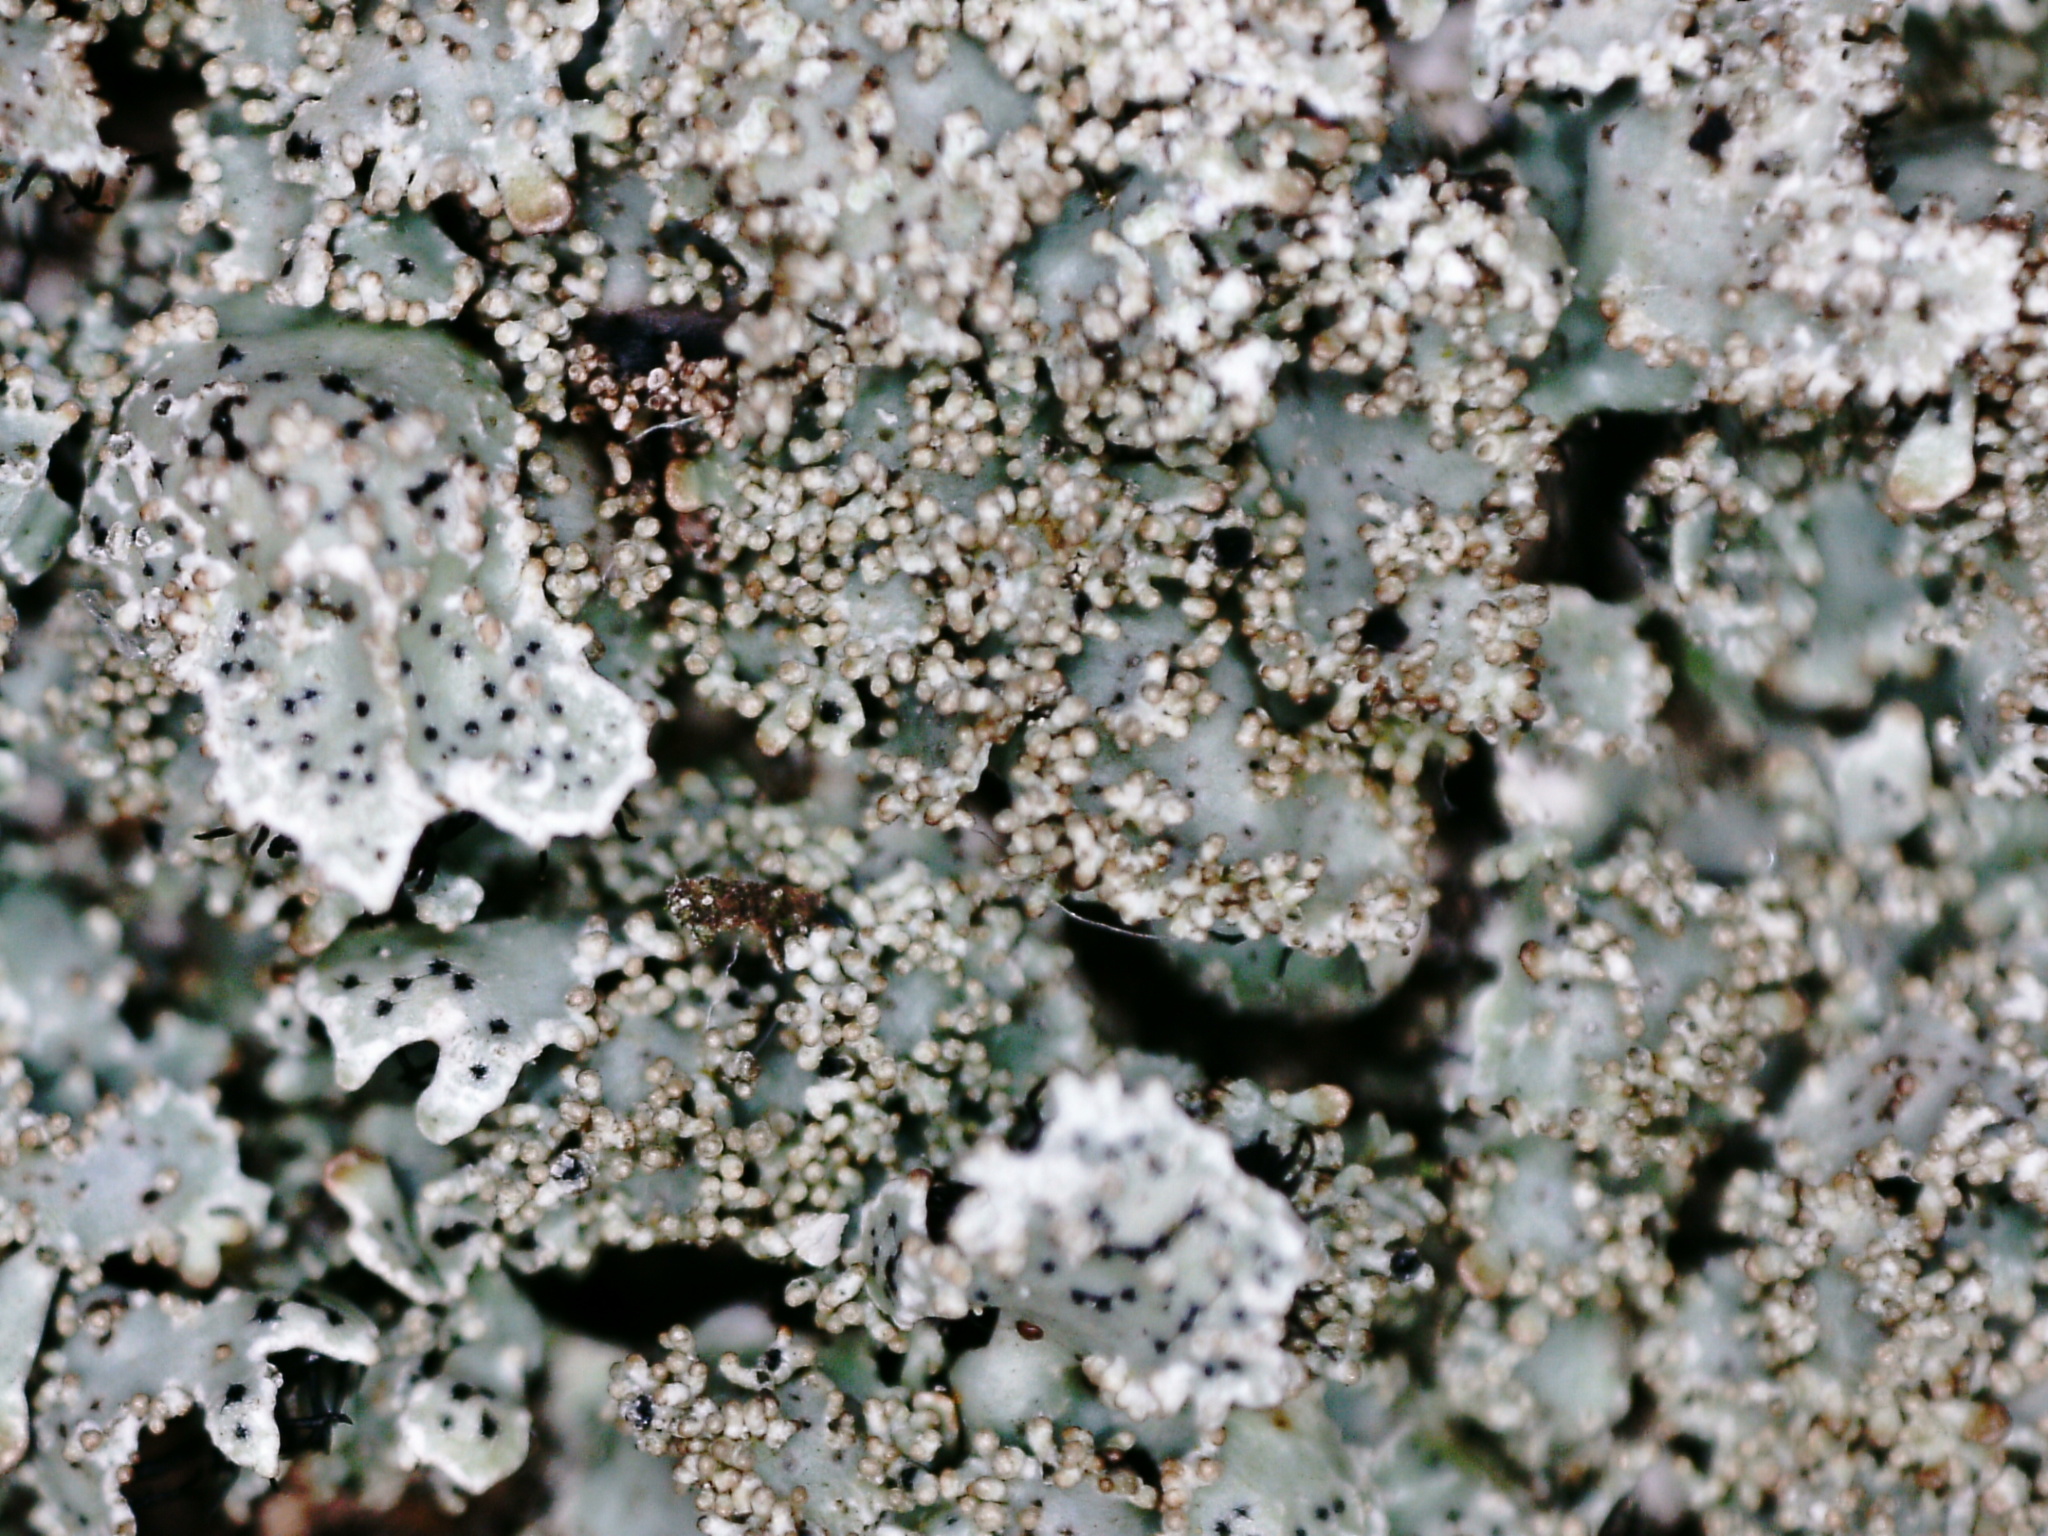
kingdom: Fungi
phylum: Ascomycota
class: Lecanoromycetes
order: Lecanorales
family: Parmeliaceae
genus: Parmelia
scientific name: Parmelia saxatilis
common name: Salted shield lichen
